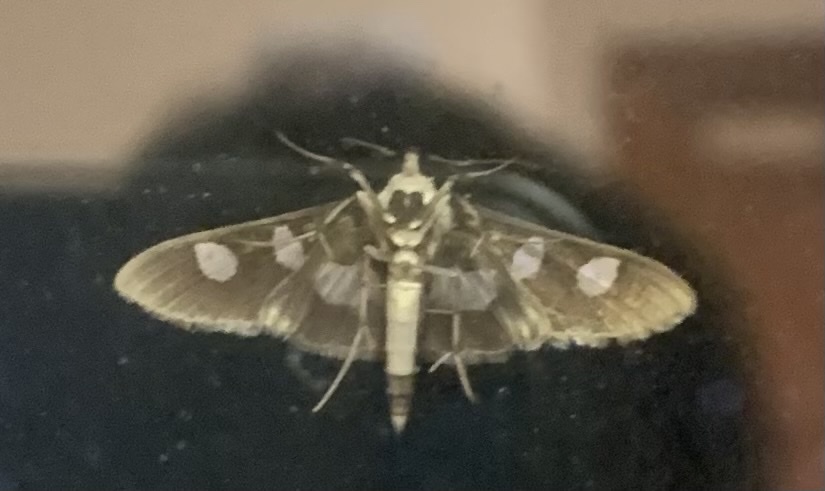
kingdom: Animalia
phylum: Arthropoda
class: Insecta
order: Lepidoptera
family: Crambidae
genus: Desmia
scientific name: Desmia funeralis
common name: Grape leaf folder moth
